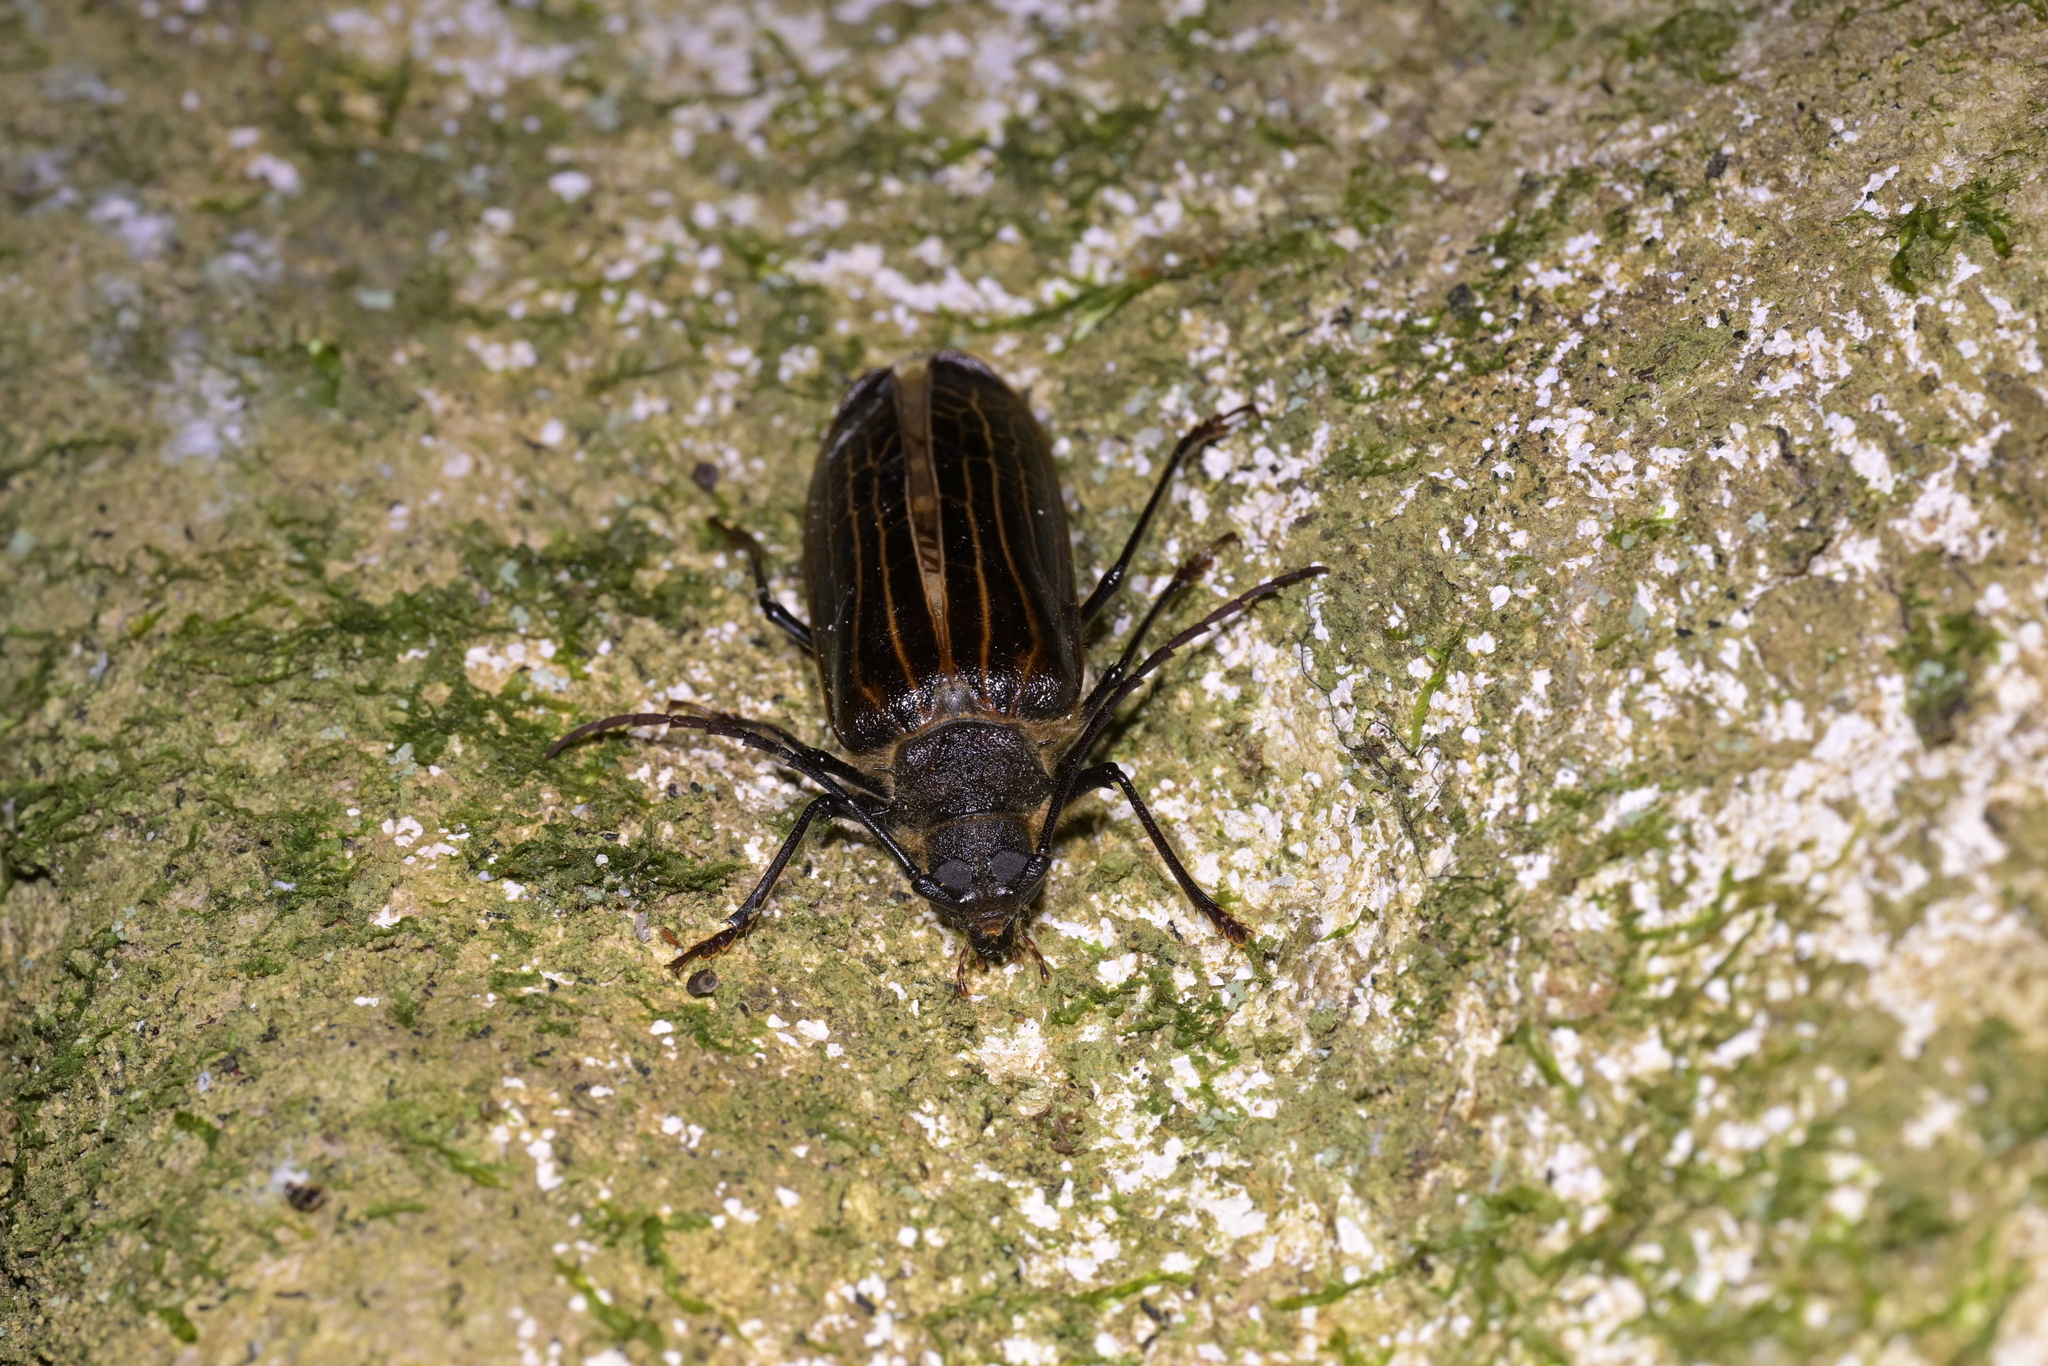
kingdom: Animalia
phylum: Arthropoda
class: Insecta
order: Coleoptera
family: Cerambycidae
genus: Prionoplus
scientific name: Prionoplus reticularis
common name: Huhu beetle
